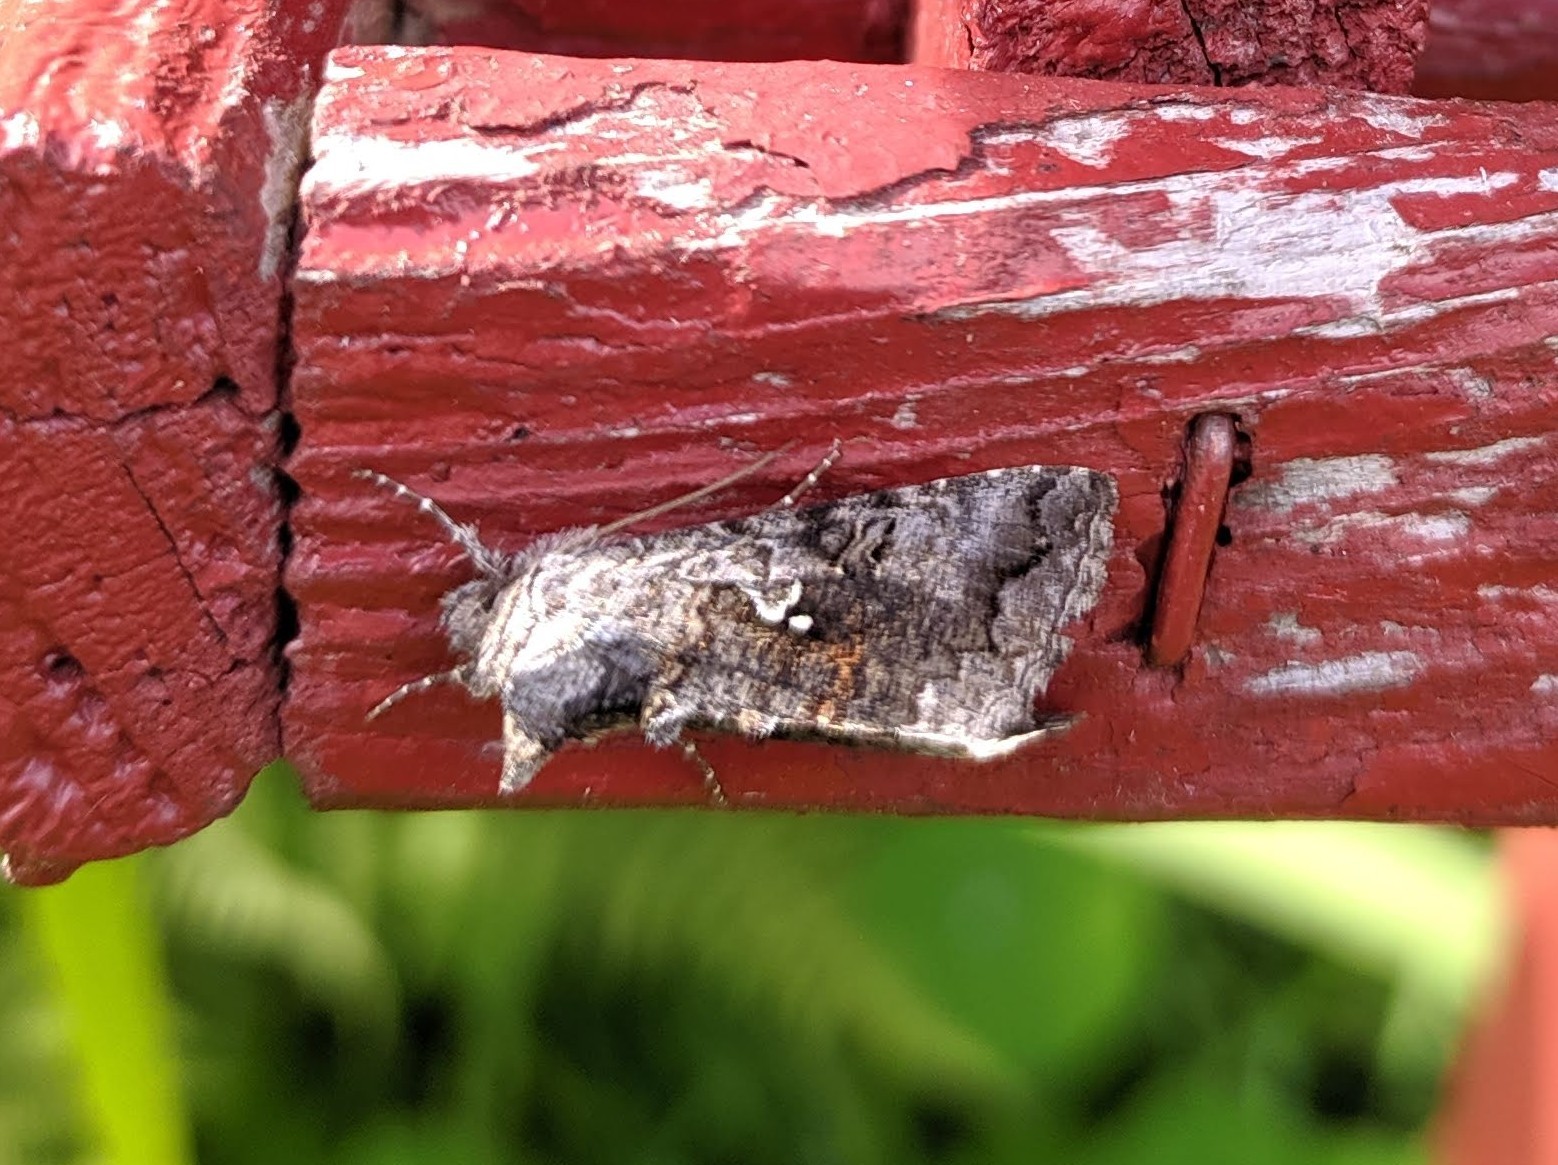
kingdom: Animalia
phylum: Arthropoda
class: Insecta
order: Lepidoptera
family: Noctuidae
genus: Syngrapha
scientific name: Syngrapha interrogationis
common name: Scarce silver y
